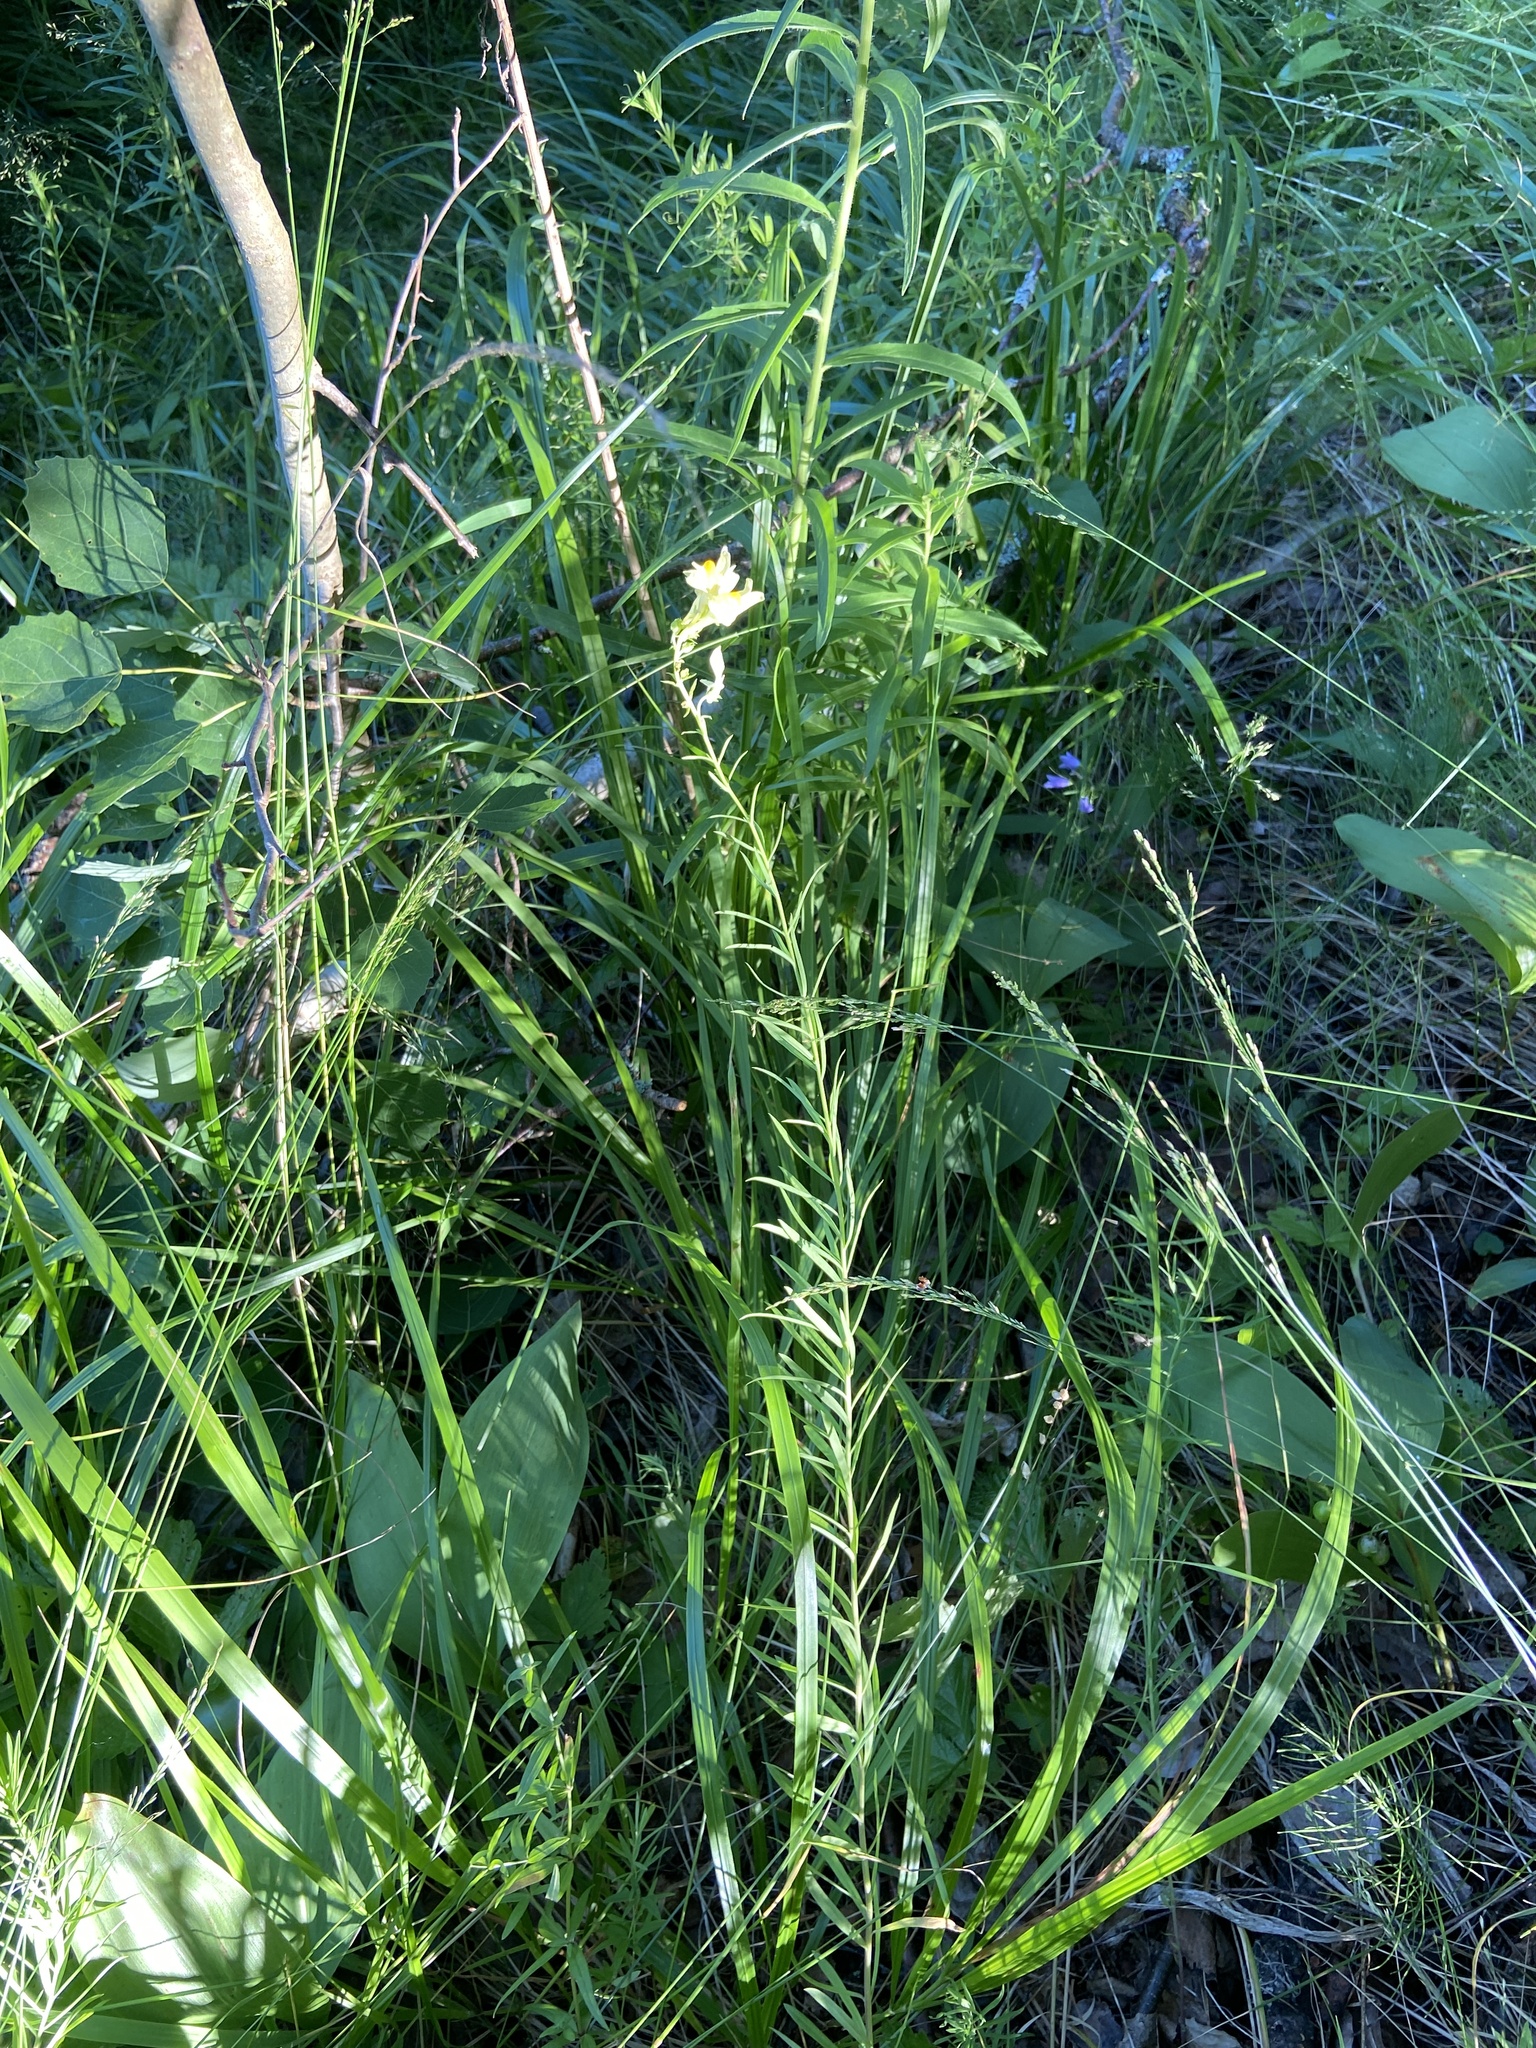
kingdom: Plantae
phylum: Tracheophyta
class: Magnoliopsida
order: Lamiales
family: Plantaginaceae
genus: Linaria
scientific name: Linaria vulgaris
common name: Butter and eggs
